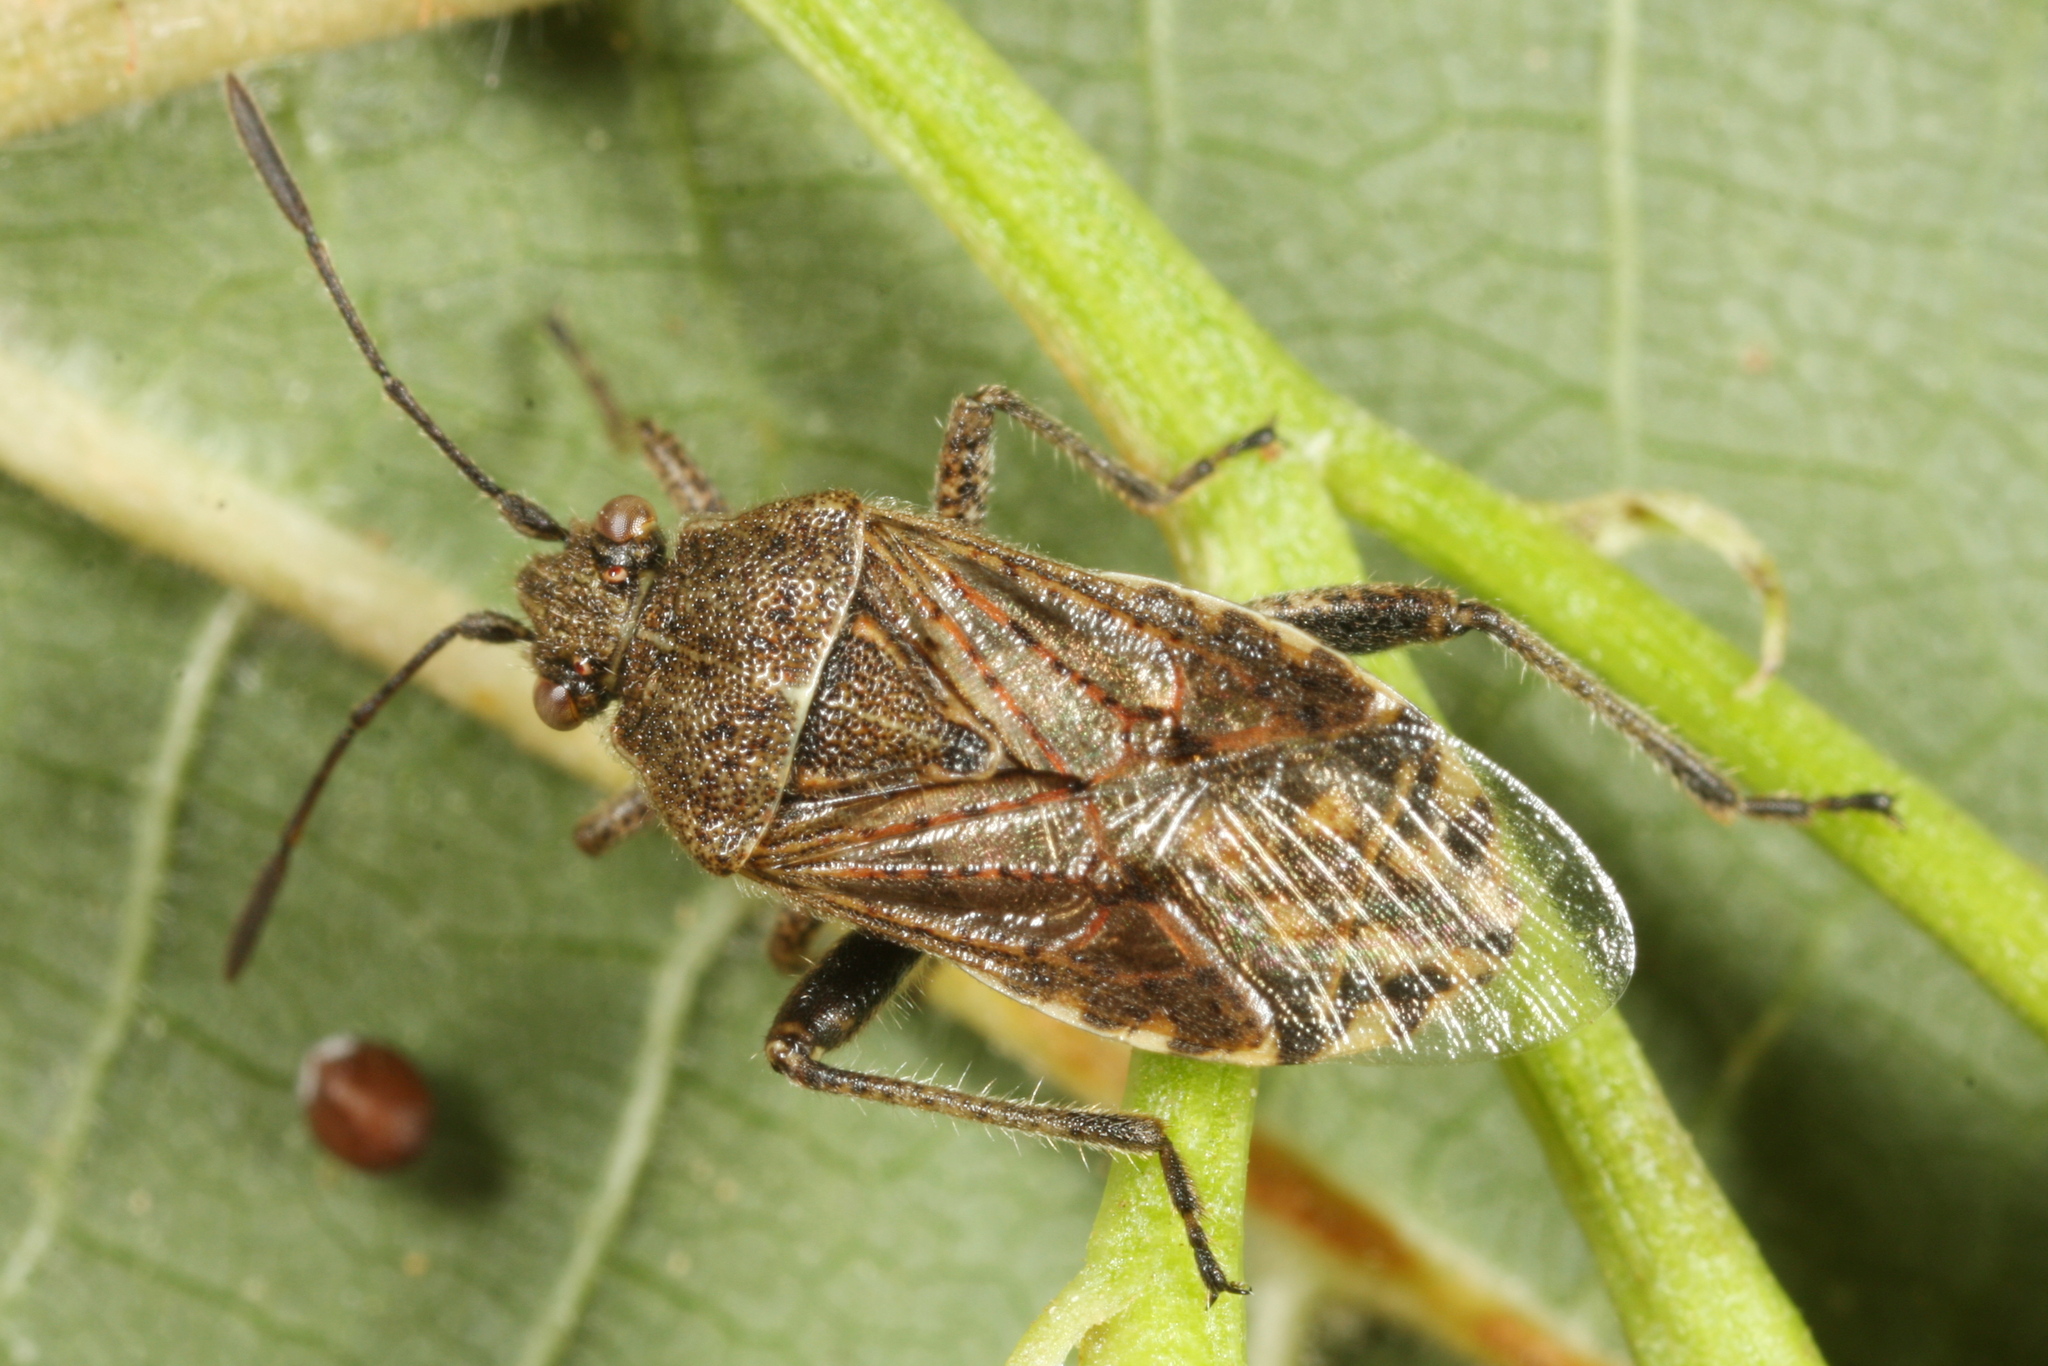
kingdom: Animalia
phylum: Arthropoda
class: Insecta
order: Hemiptera
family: Rhopalidae
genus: Stictopleurus
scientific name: Stictopleurus punctatonervosus
